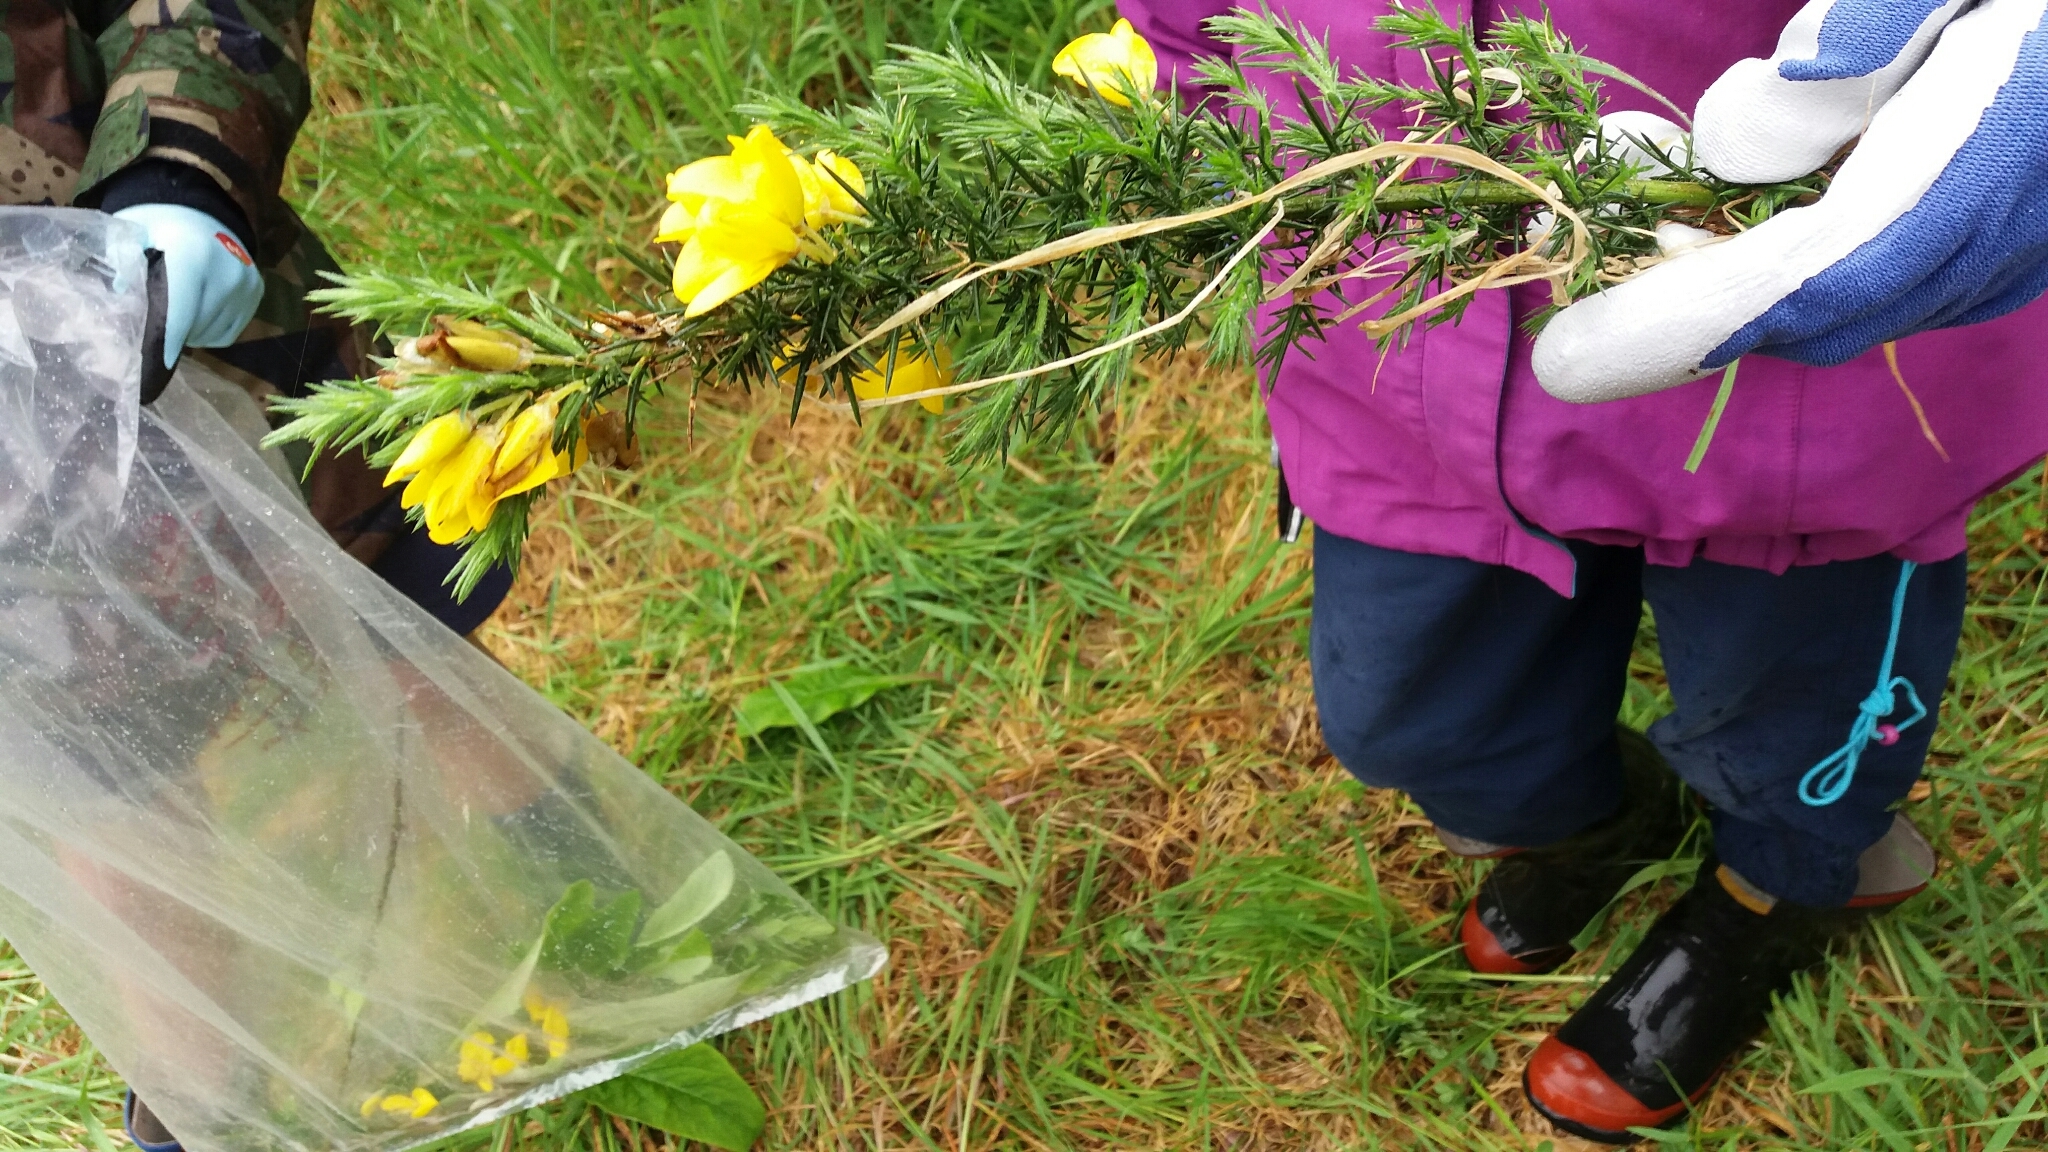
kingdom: Plantae
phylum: Tracheophyta
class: Magnoliopsida
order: Fabales
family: Fabaceae
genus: Ulex
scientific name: Ulex europaeus
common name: Common gorse
